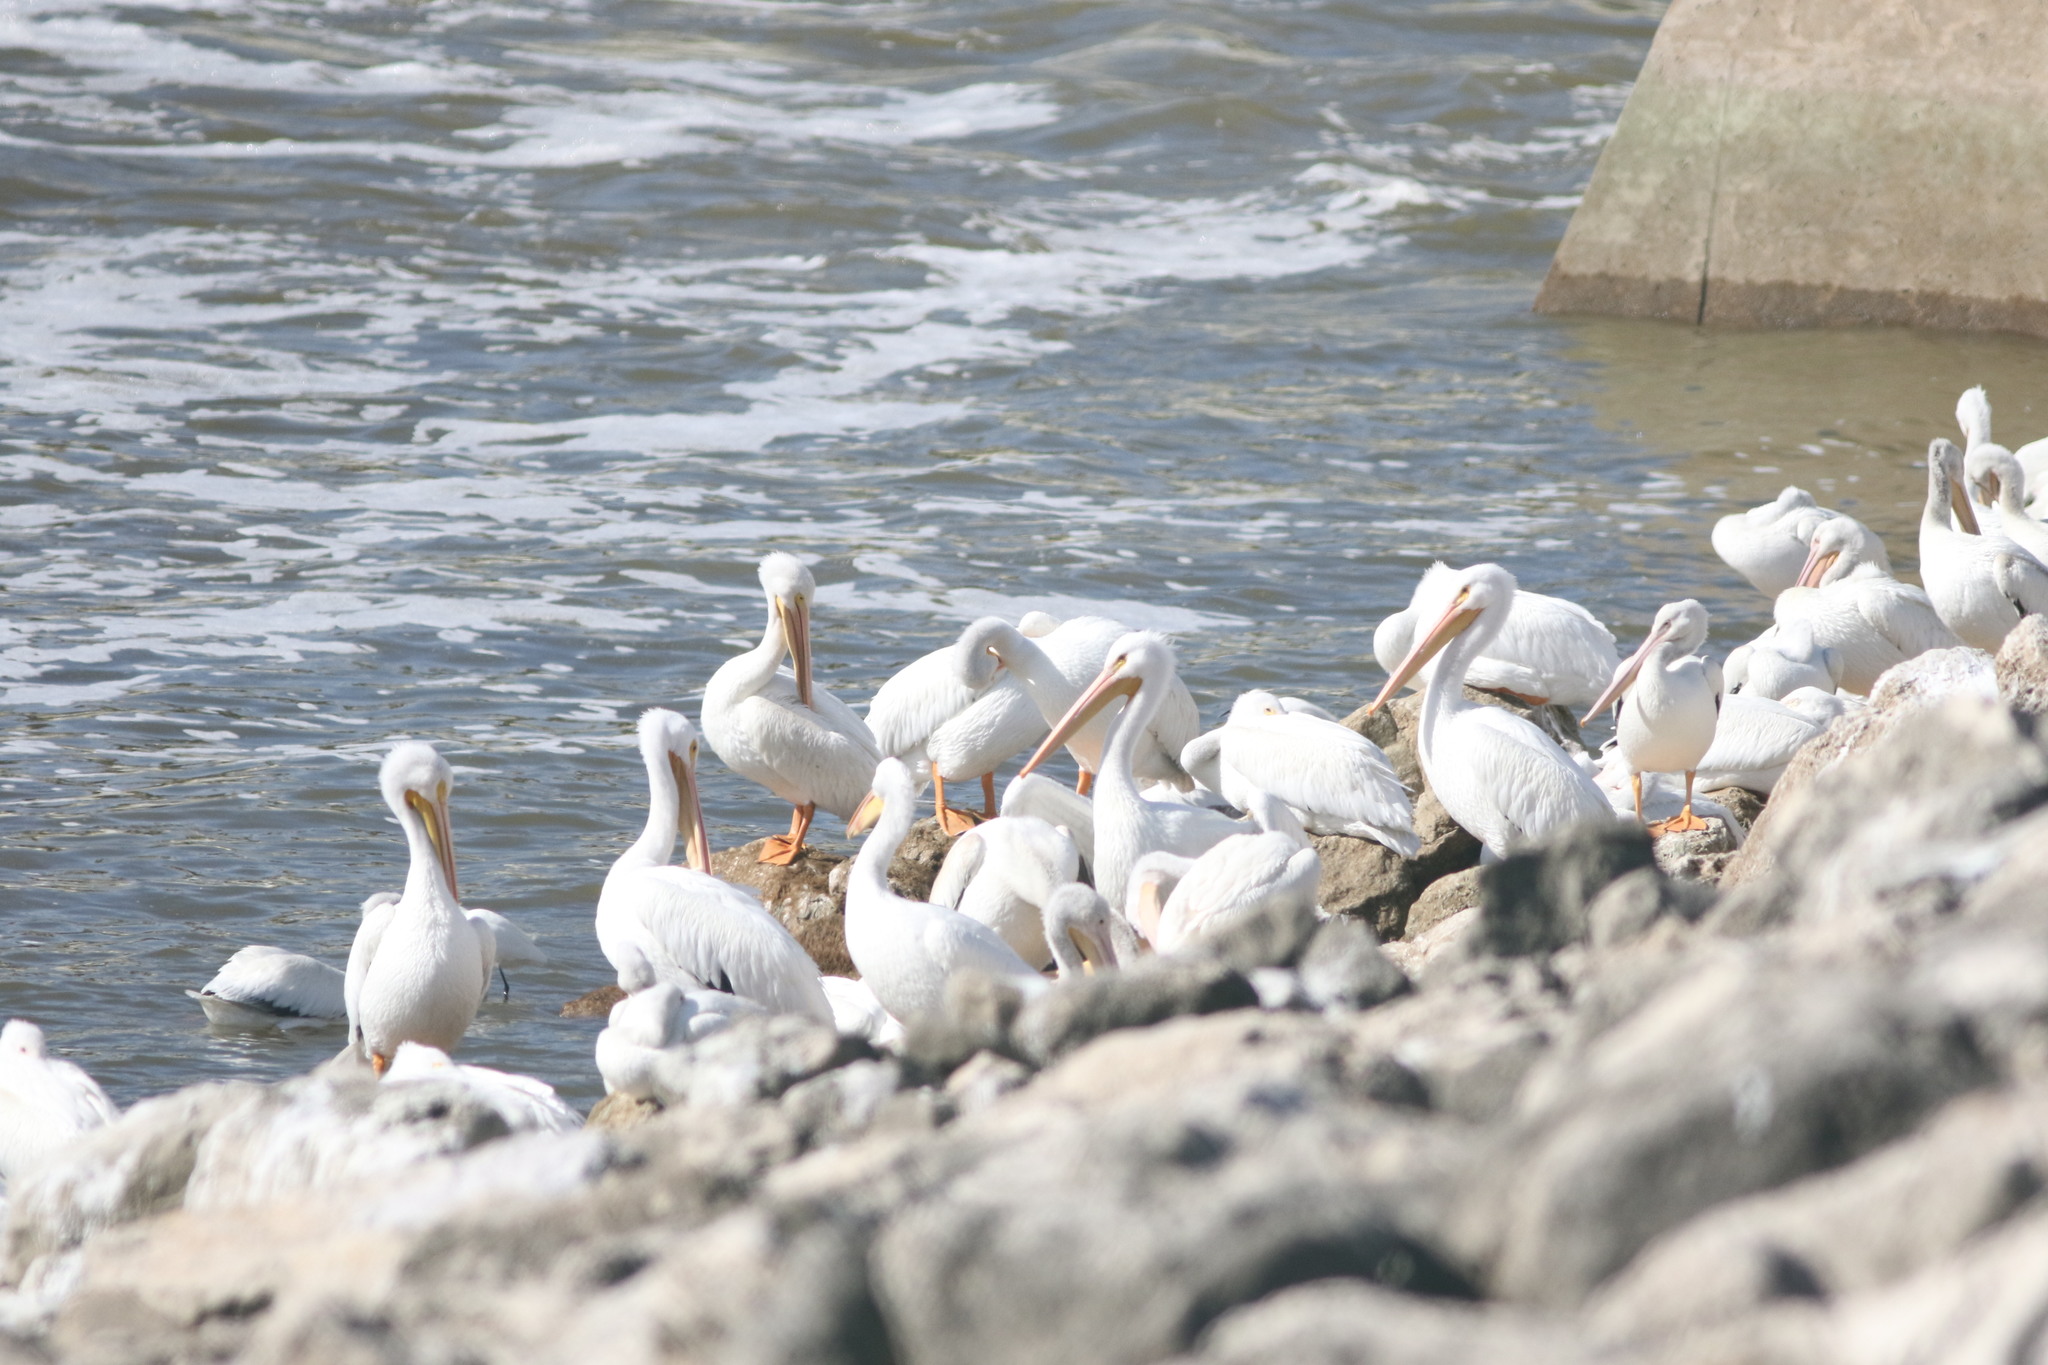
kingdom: Animalia
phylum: Chordata
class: Aves
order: Pelecaniformes
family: Pelecanidae
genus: Pelecanus
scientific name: Pelecanus erythrorhynchos
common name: American white pelican
